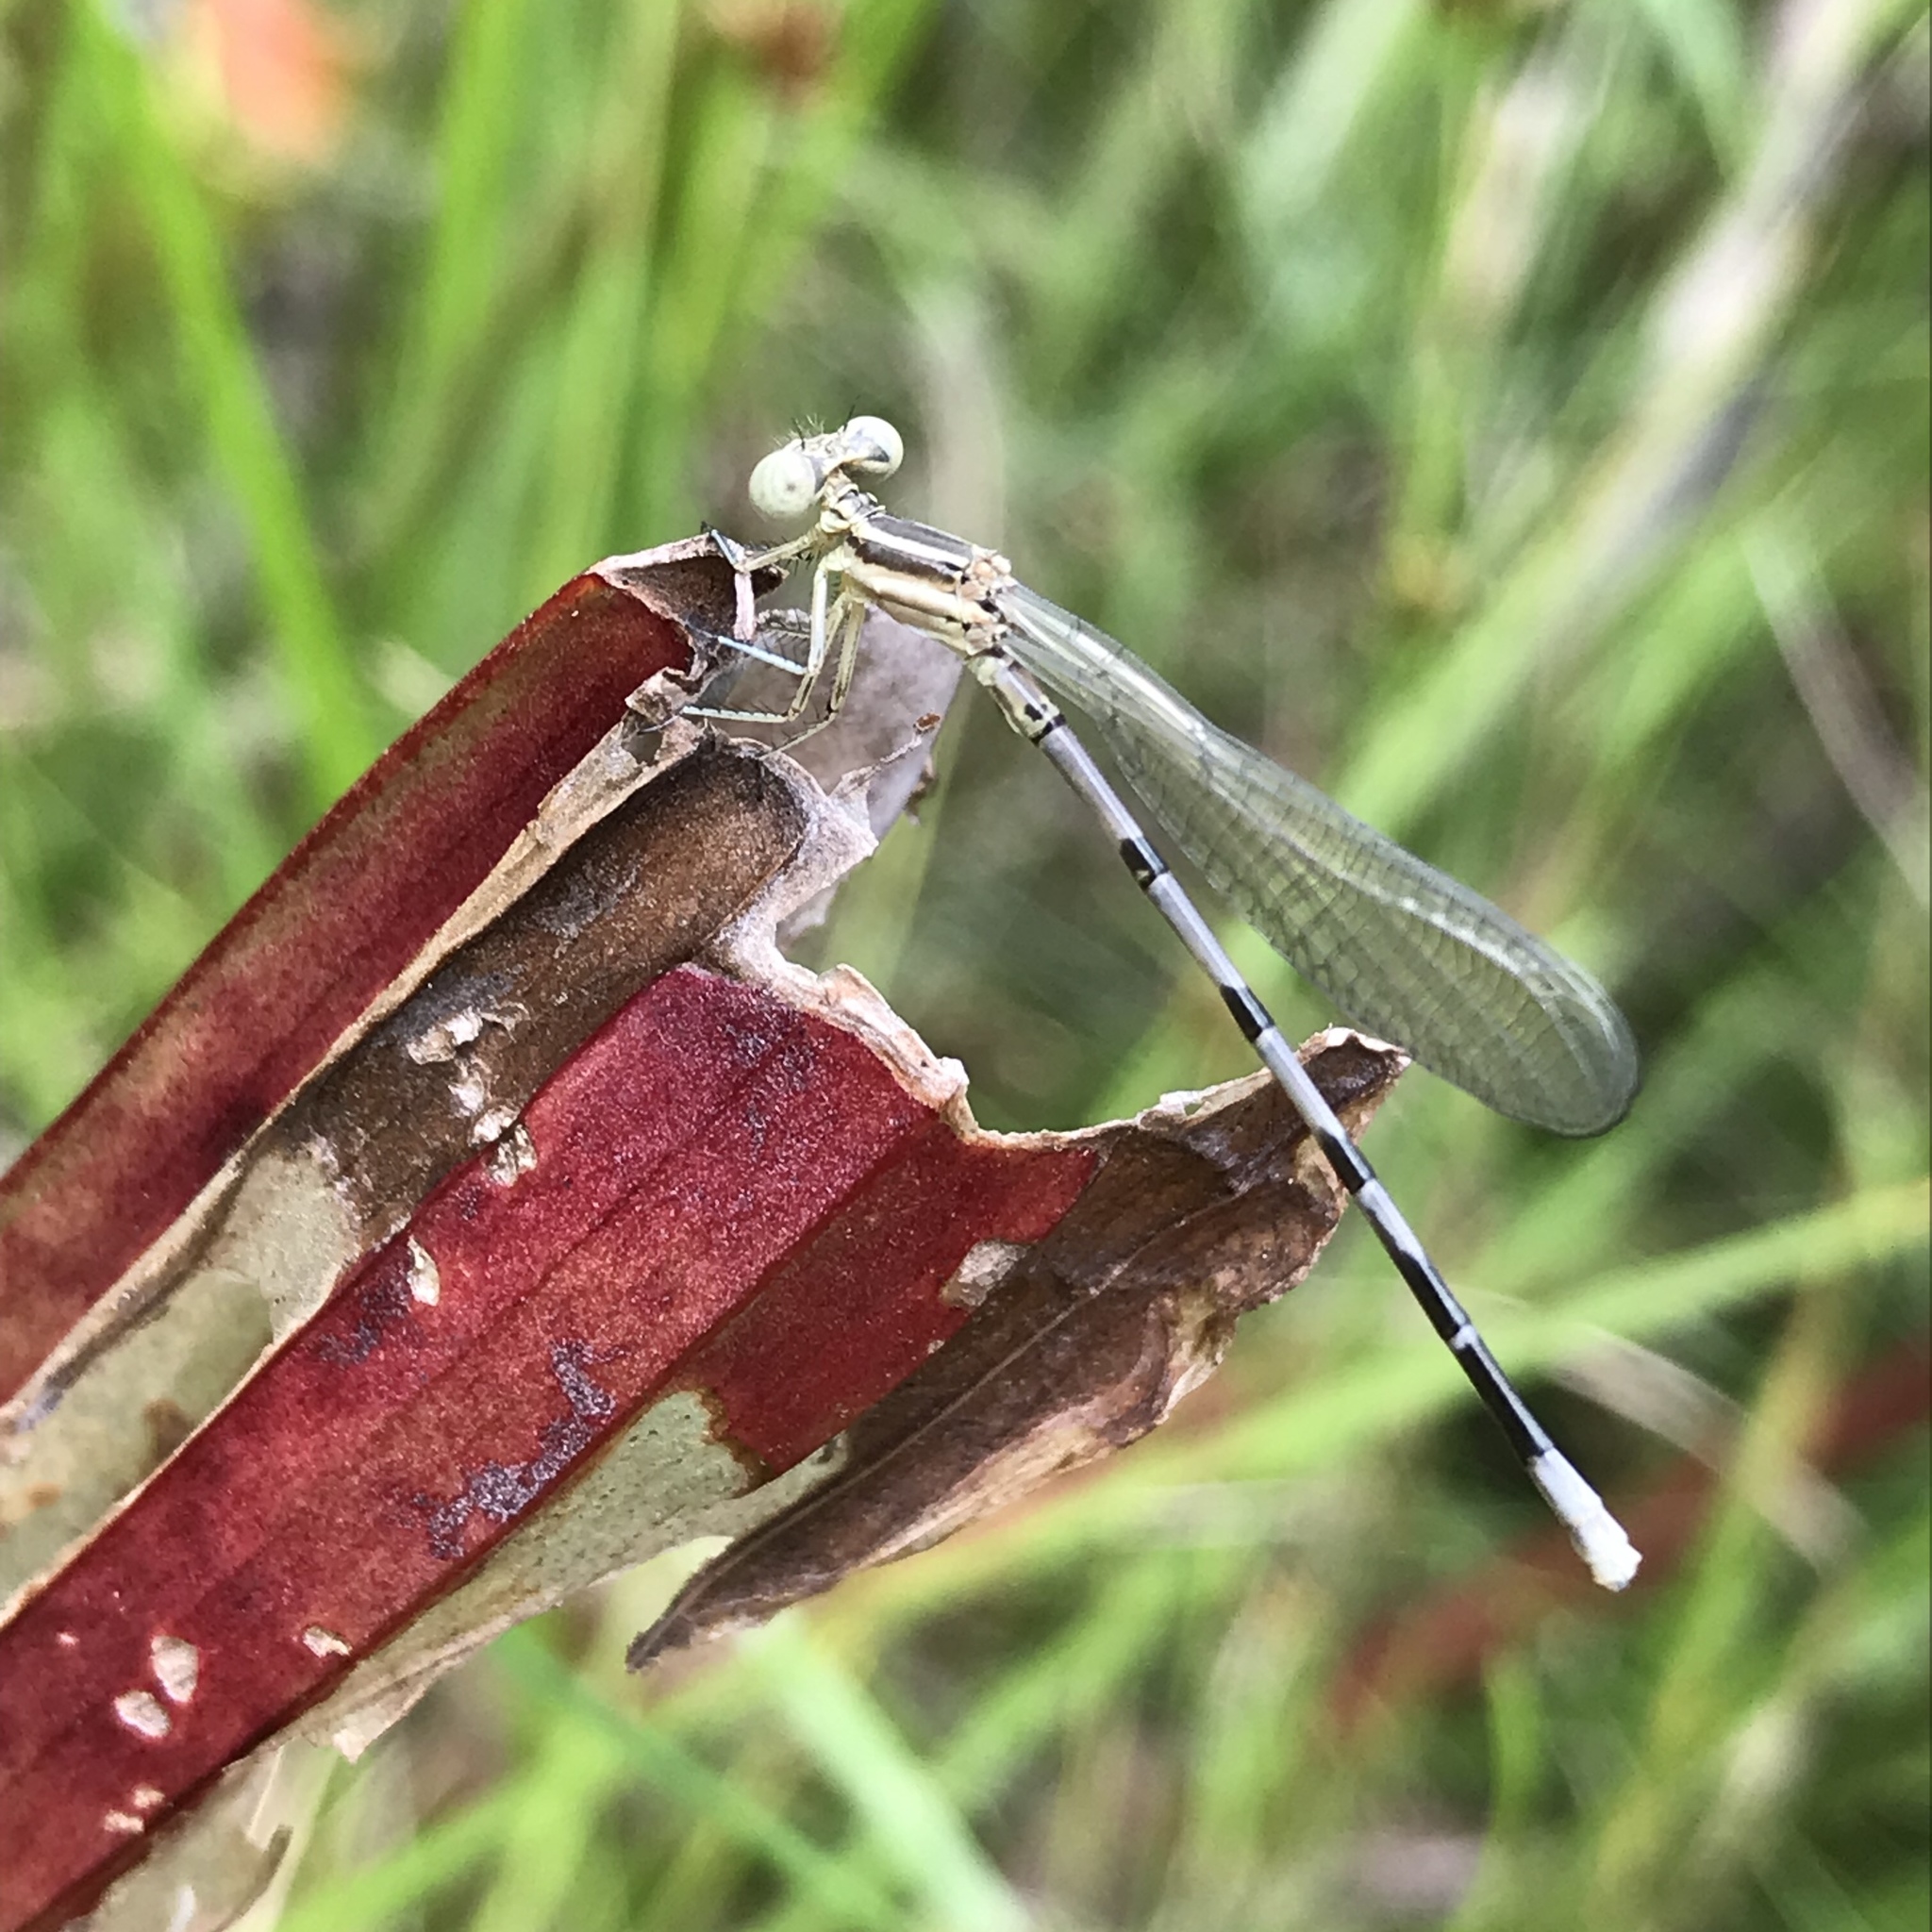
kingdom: Animalia
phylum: Arthropoda
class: Insecta
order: Odonata
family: Coenagrionidae
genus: Argia
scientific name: Argia bipunctulata
